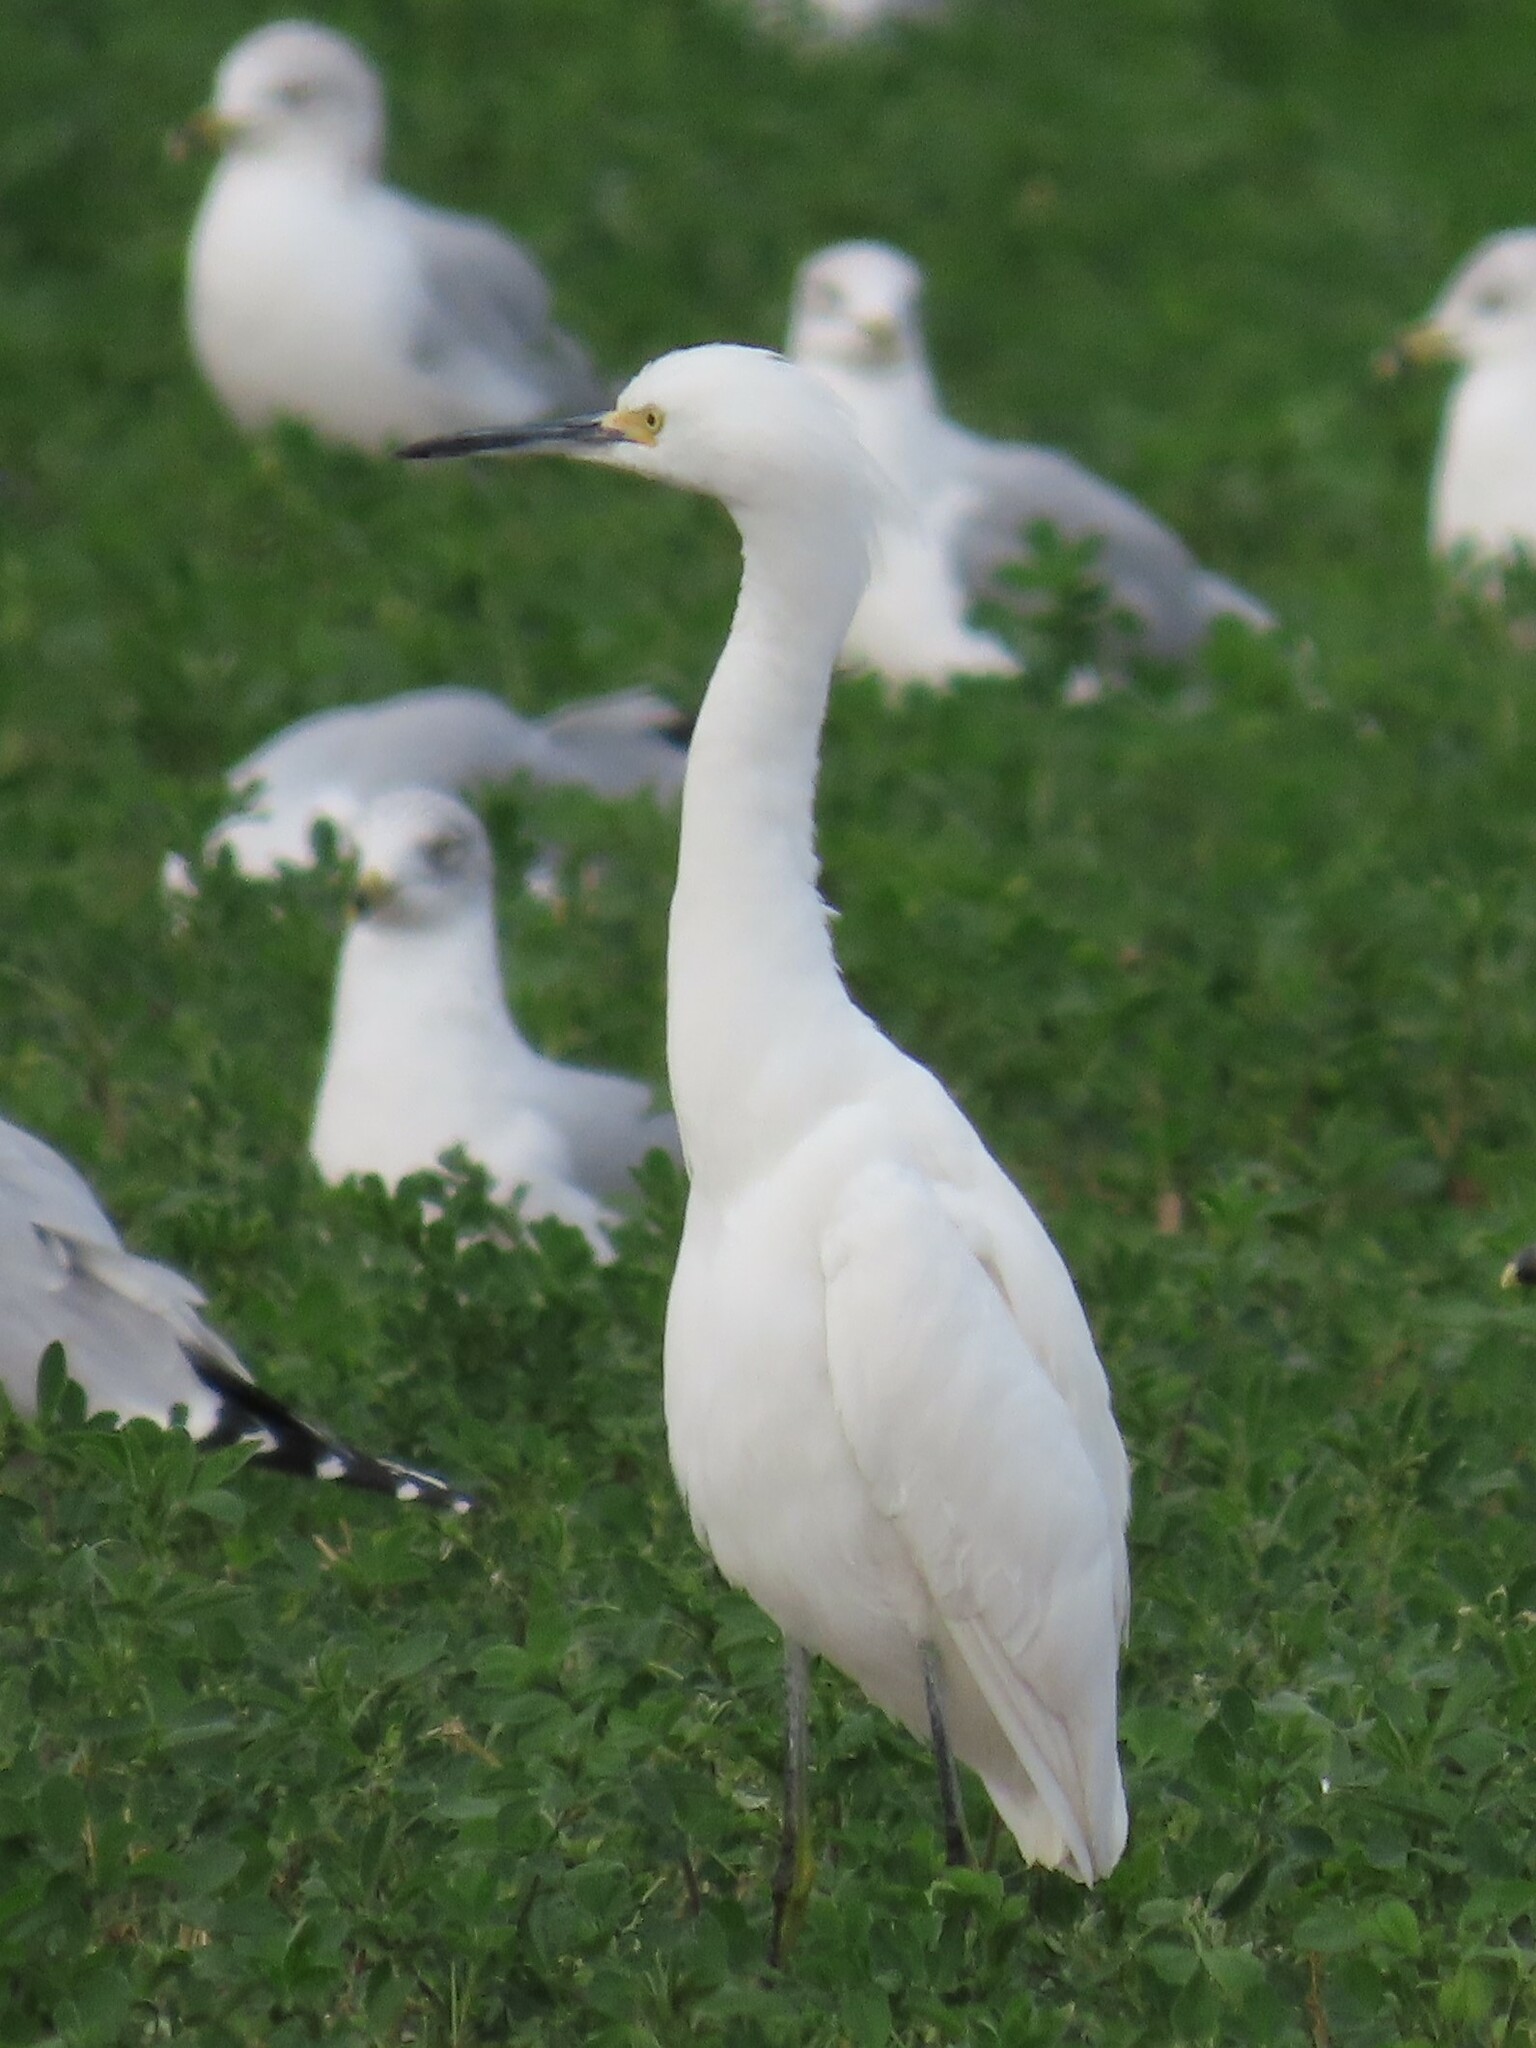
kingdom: Animalia
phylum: Chordata
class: Aves
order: Pelecaniformes
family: Ardeidae
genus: Egretta
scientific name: Egretta thula
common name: Snowy egret
